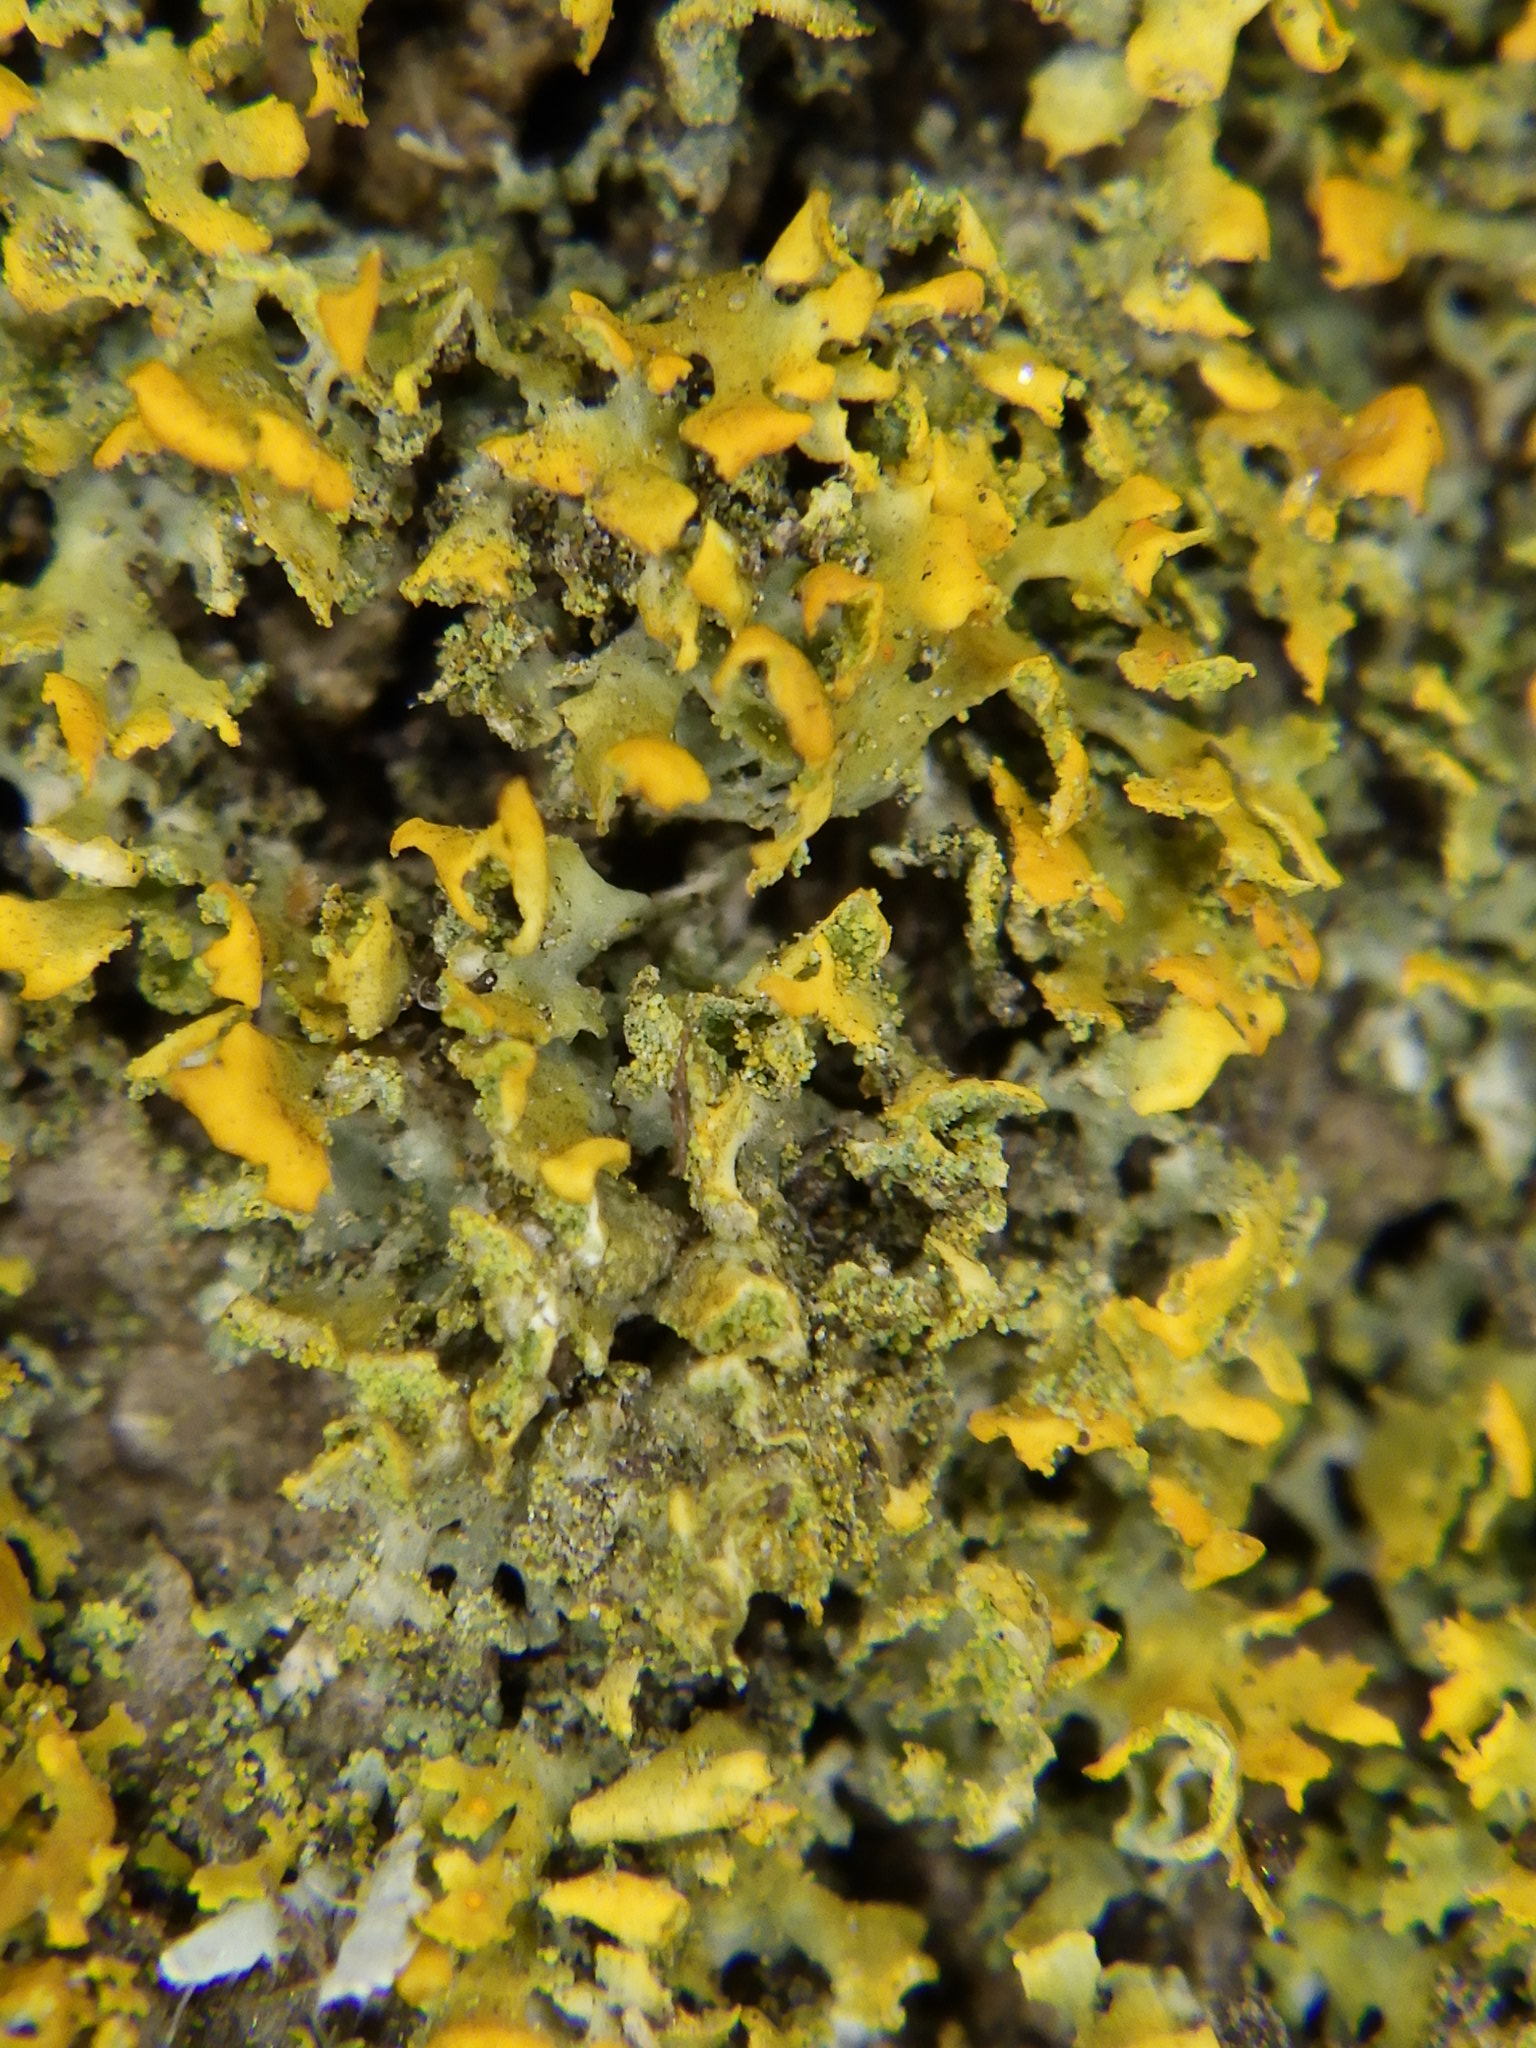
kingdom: Fungi
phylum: Ascomycota
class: Lecanoromycetes
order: Teloschistales
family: Teloschistaceae
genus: Gallowayella
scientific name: Gallowayella weberi
